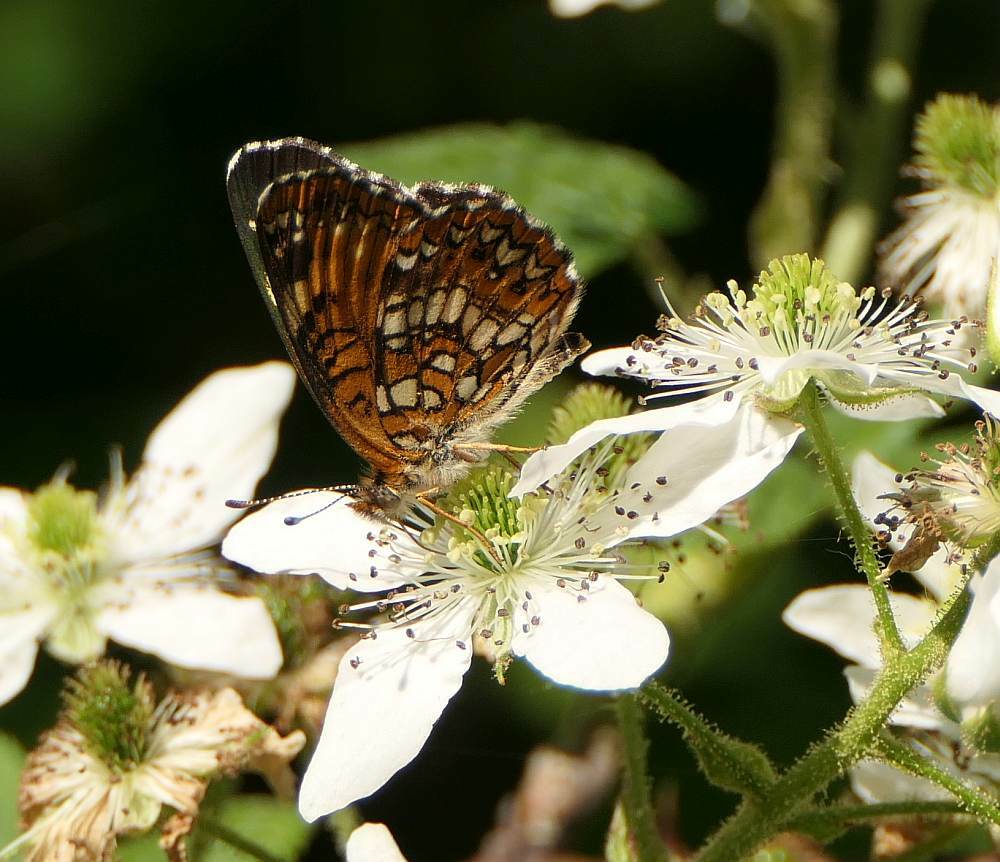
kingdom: Animalia
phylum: Arthropoda
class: Insecta
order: Lepidoptera
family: Nymphalidae
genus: Chlosyne
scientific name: Chlosyne harrisii
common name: Harris's checkerspot
